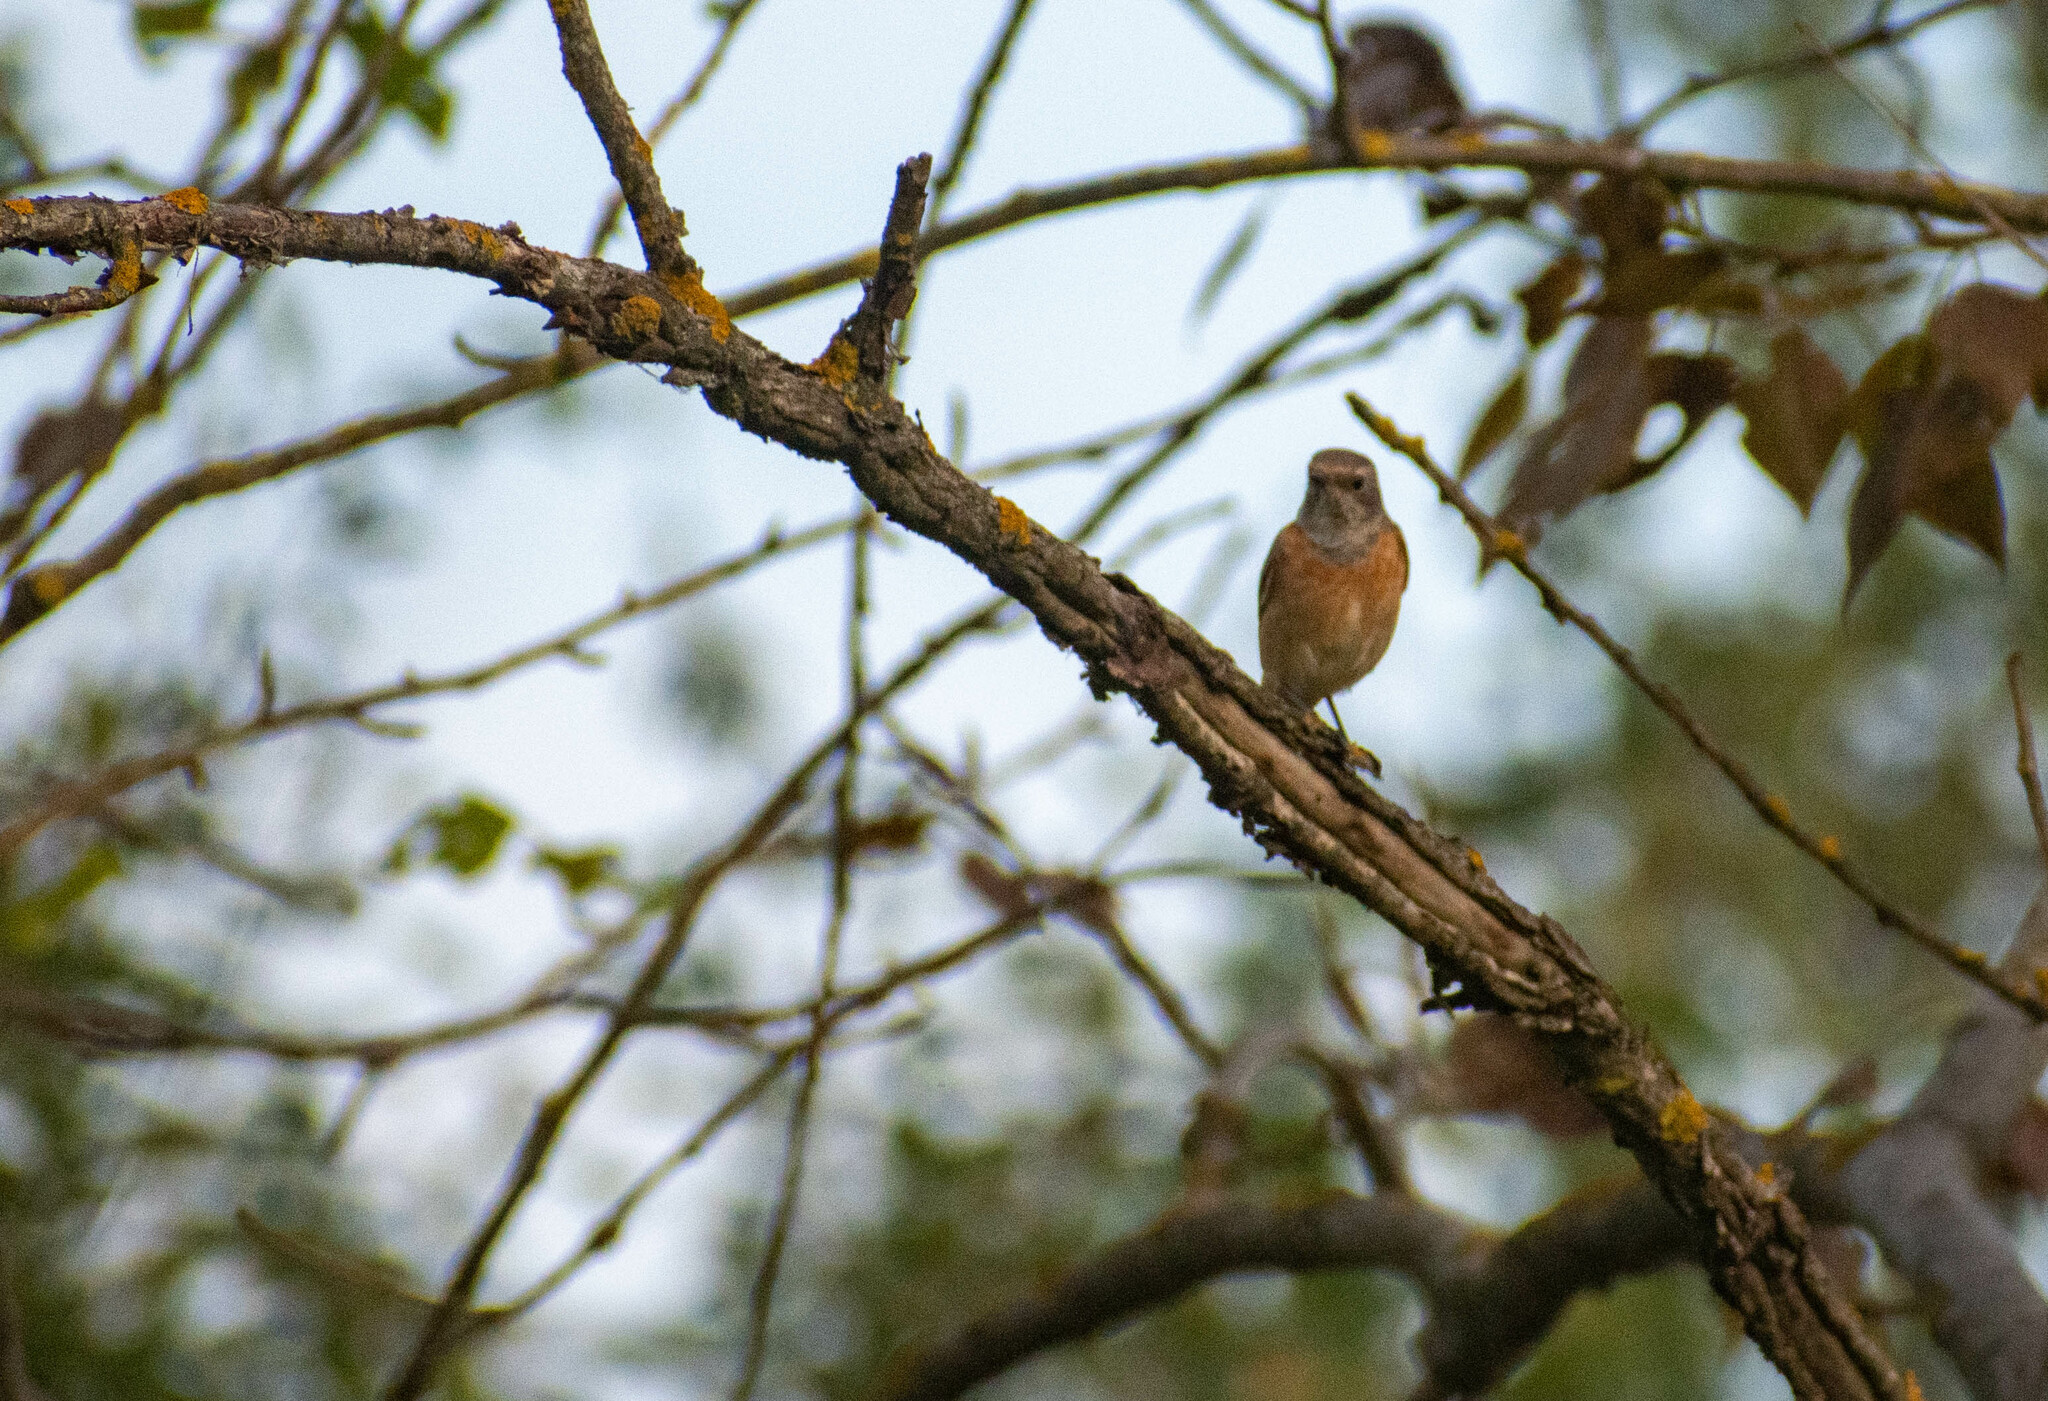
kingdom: Animalia
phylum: Chordata
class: Aves
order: Passeriformes
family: Muscicapidae
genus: Phoenicurus
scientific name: Phoenicurus phoenicurus
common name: Common redstart
